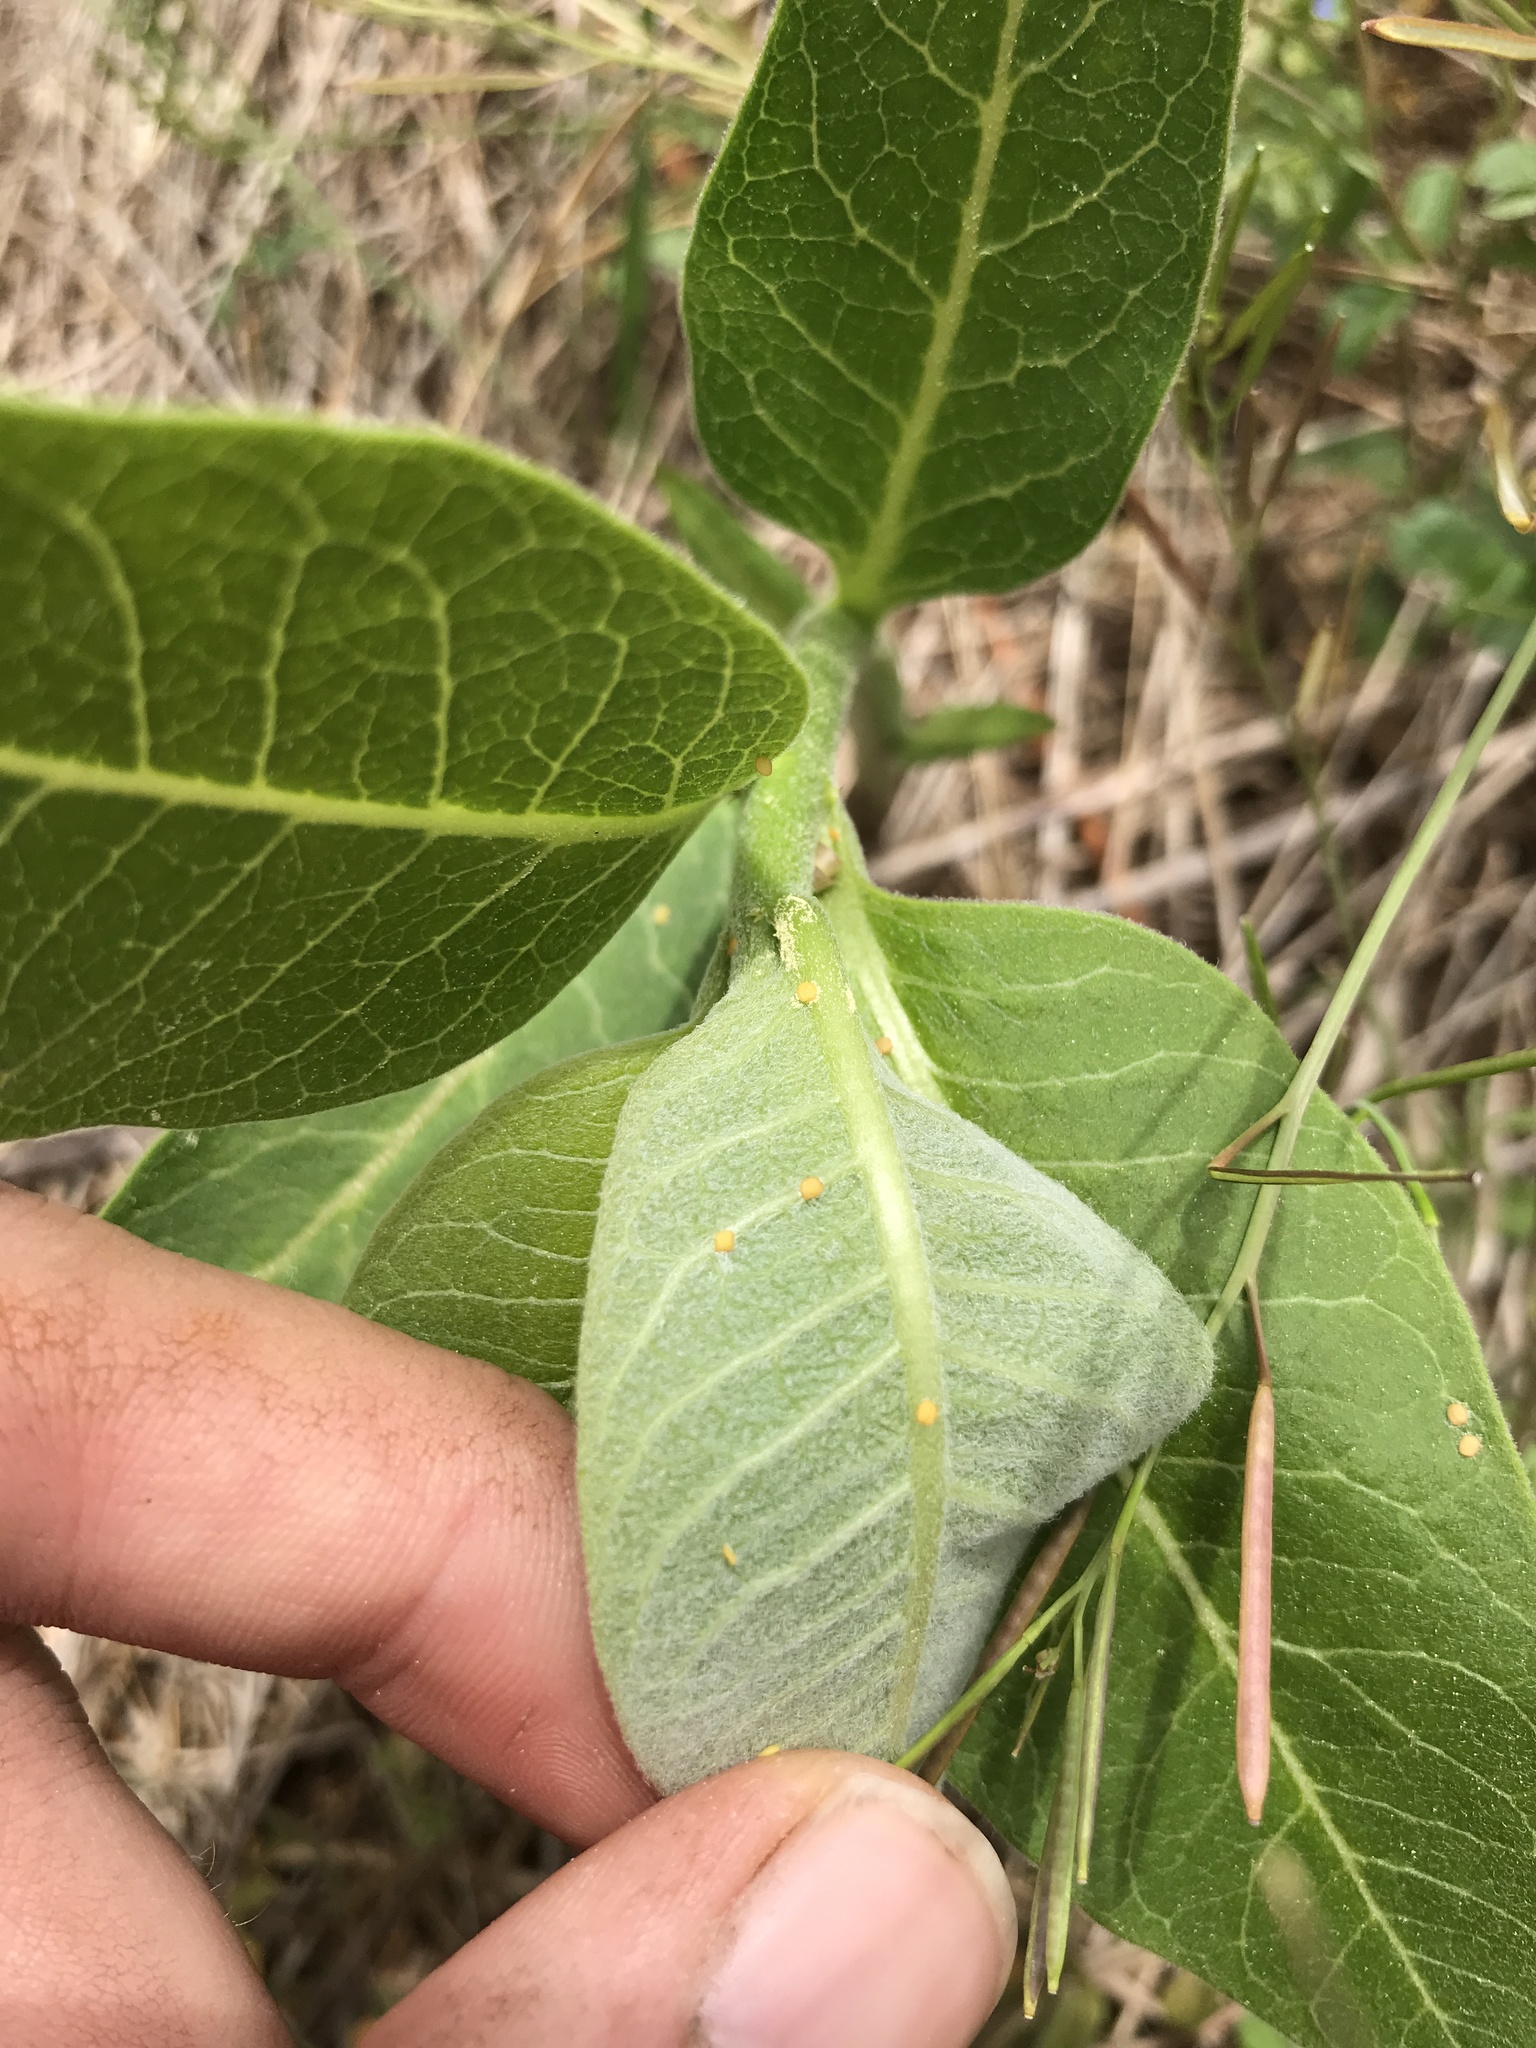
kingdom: Animalia
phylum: Arthropoda
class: Insecta
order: Hemiptera
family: Aphididae
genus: Aphis
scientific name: Aphis nerii
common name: Oleander aphid
